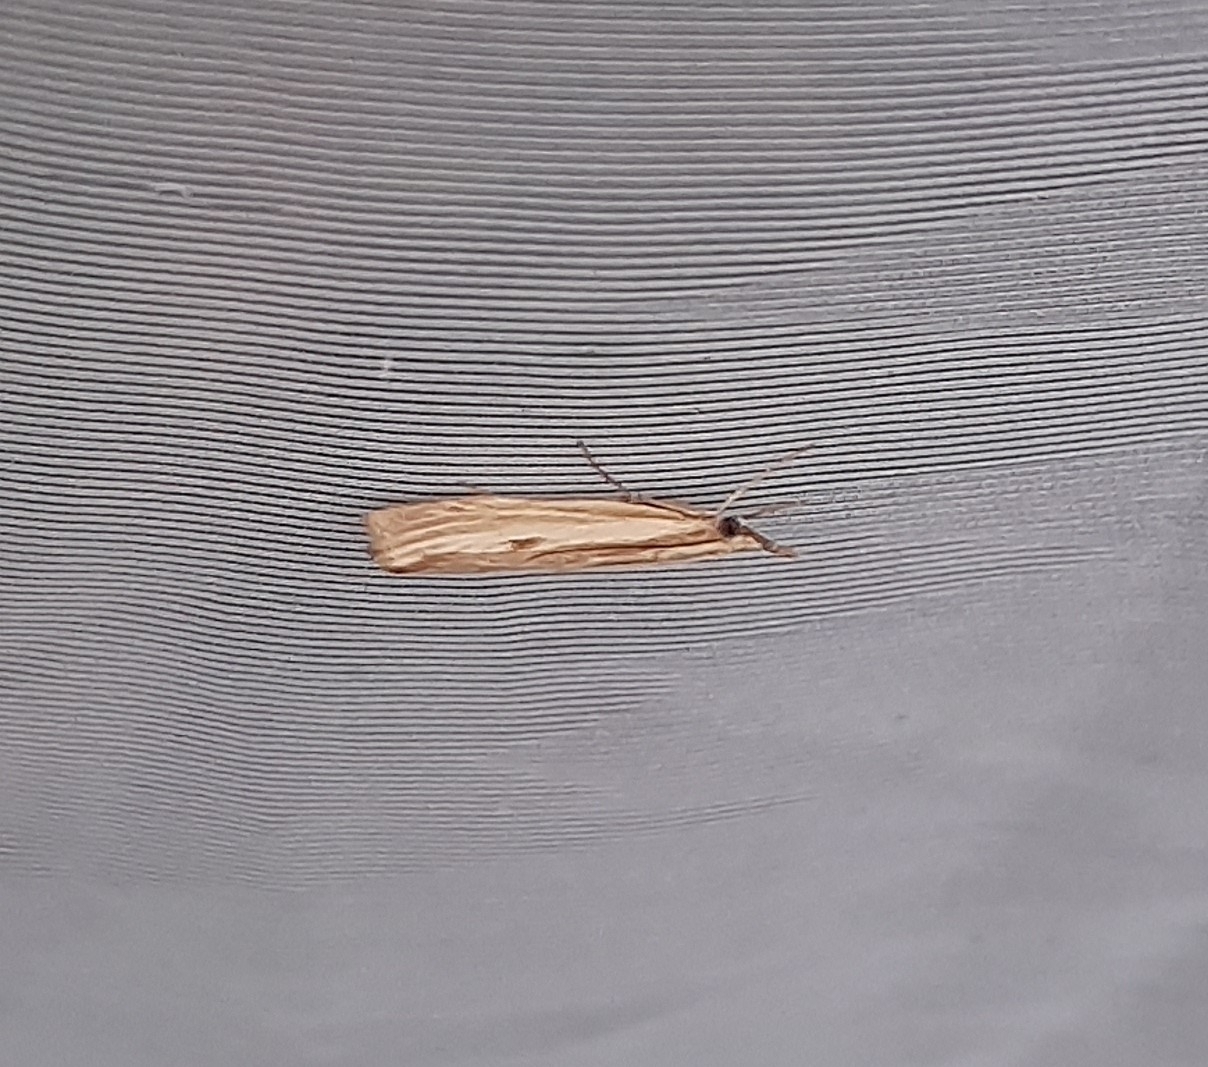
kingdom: Animalia
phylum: Arthropoda
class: Insecta
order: Lepidoptera
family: Crambidae
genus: Agriphila
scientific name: Agriphila tristellus
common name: Common grass-veneer
